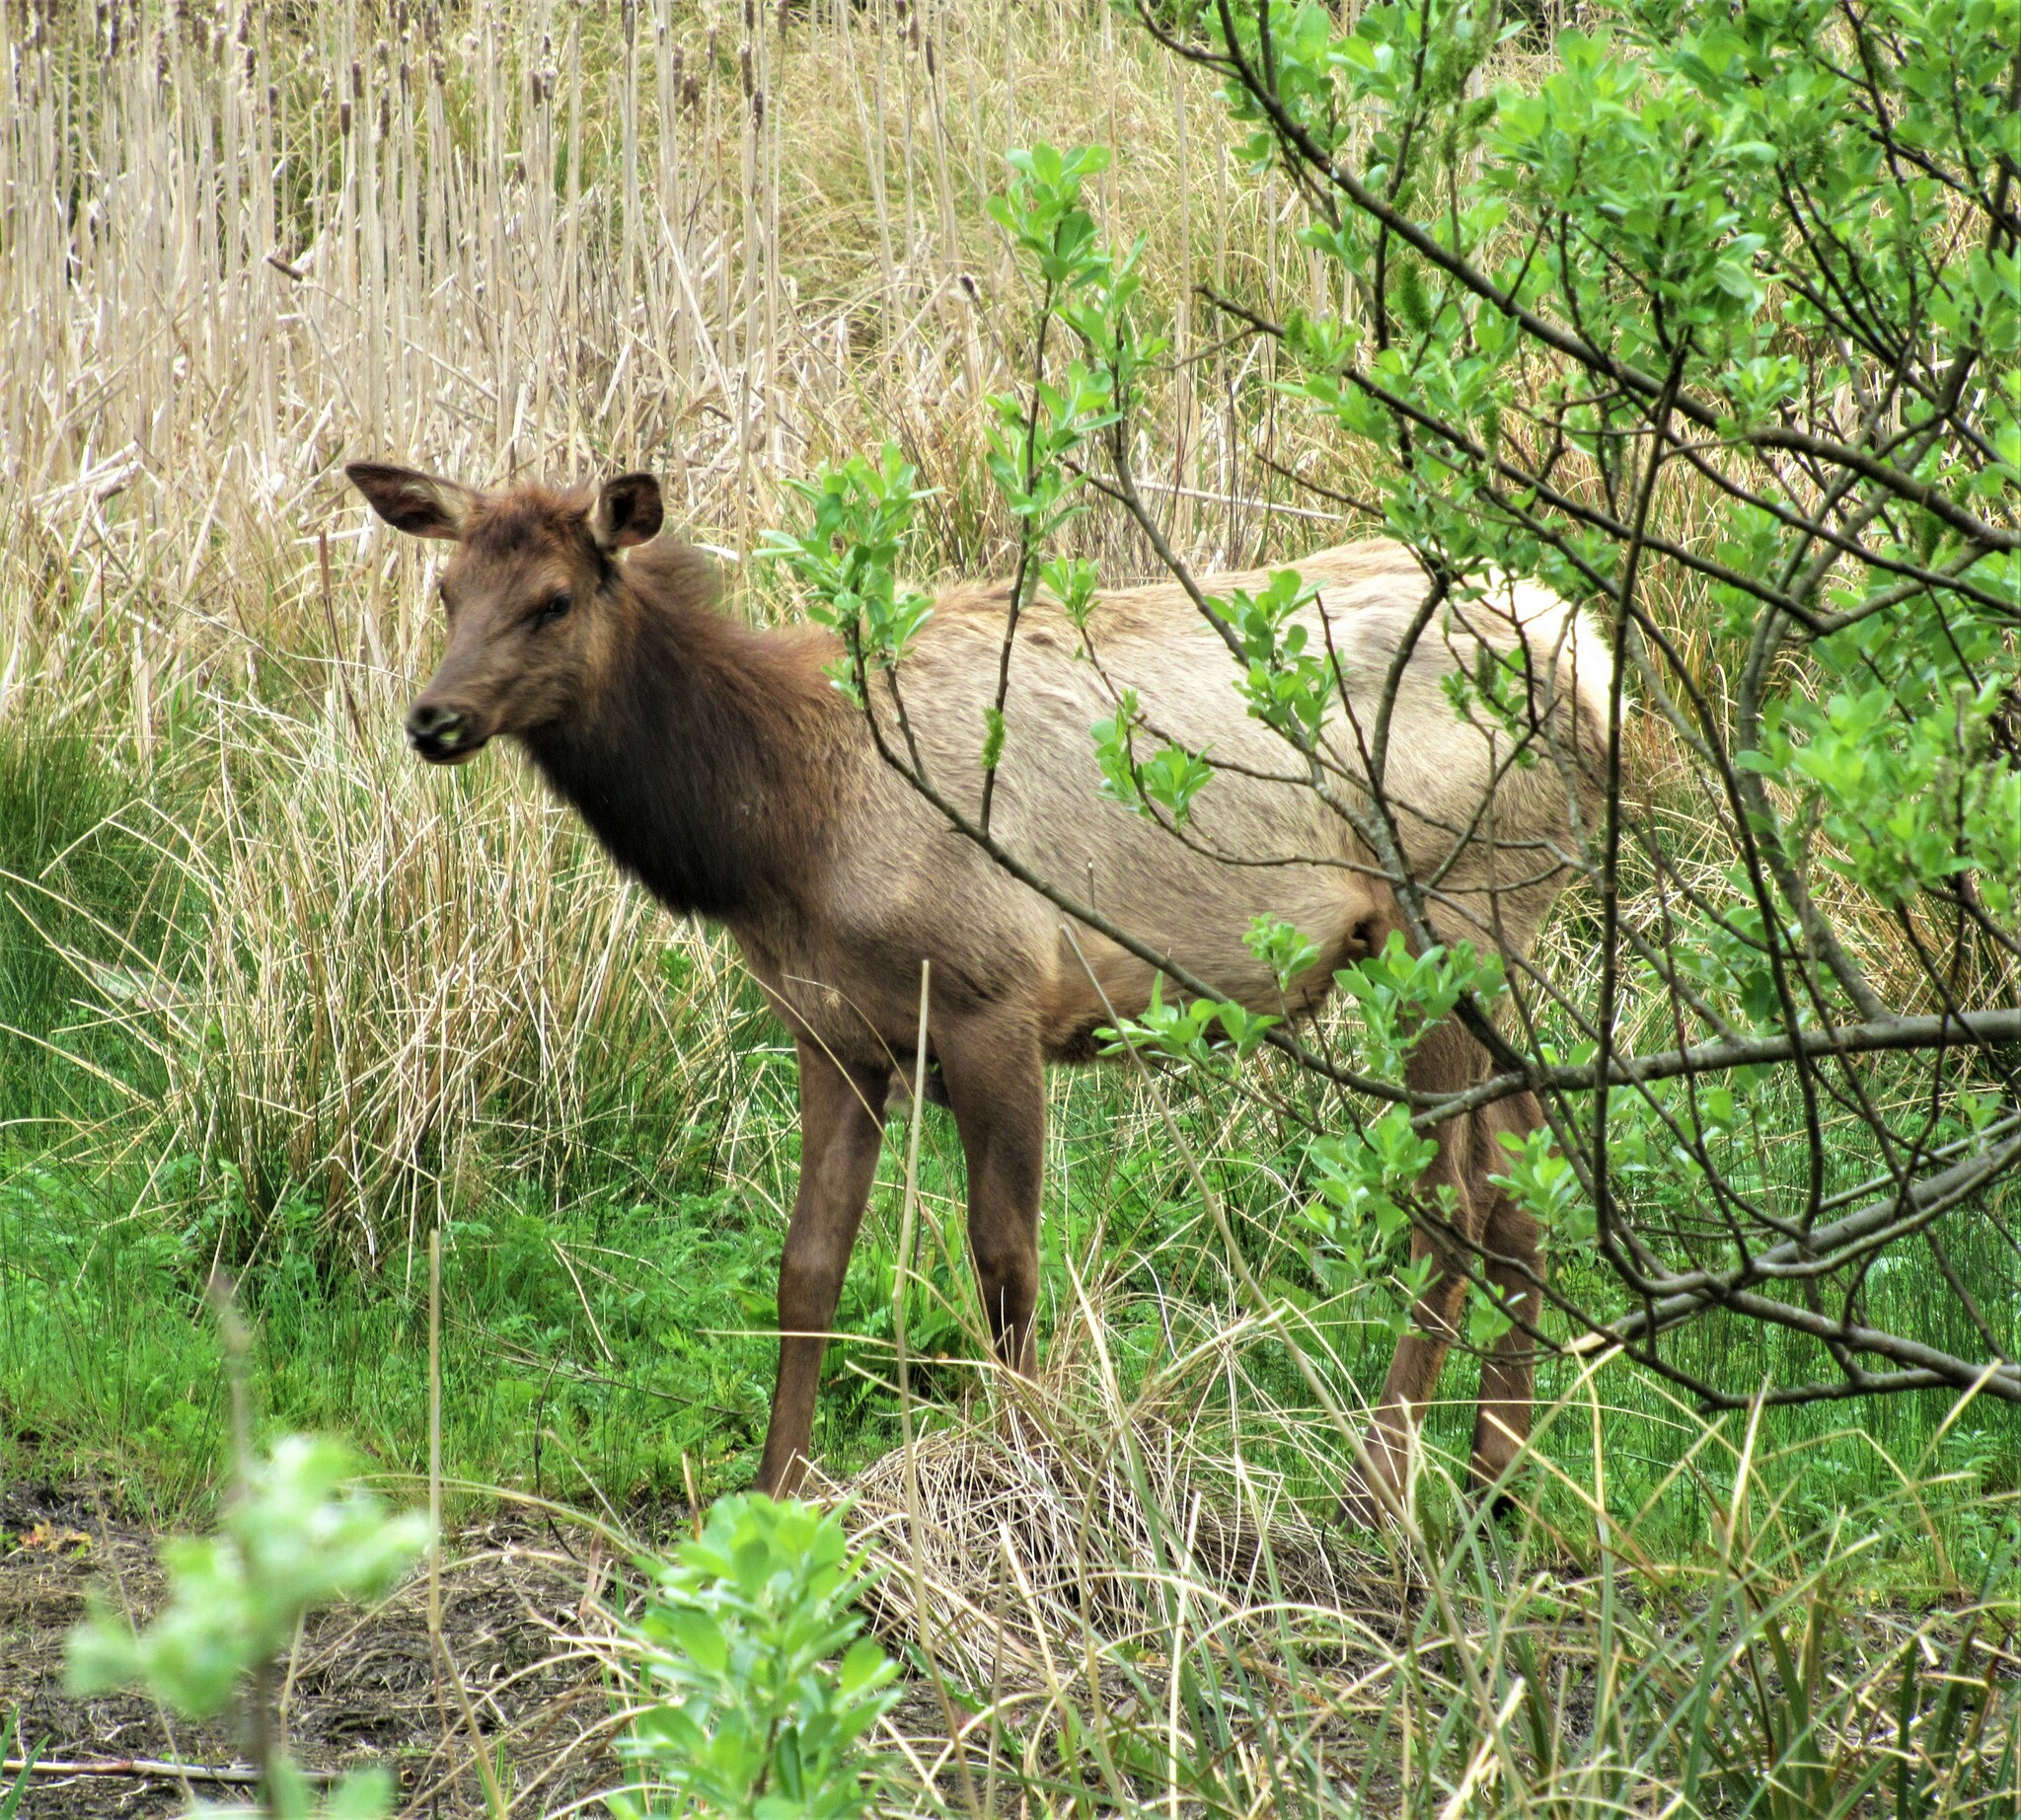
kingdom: Animalia
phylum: Chordata
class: Mammalia
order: Artiodactyla
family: Cervidae
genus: Cervus
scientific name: Cervus elaphus
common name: Red deer
